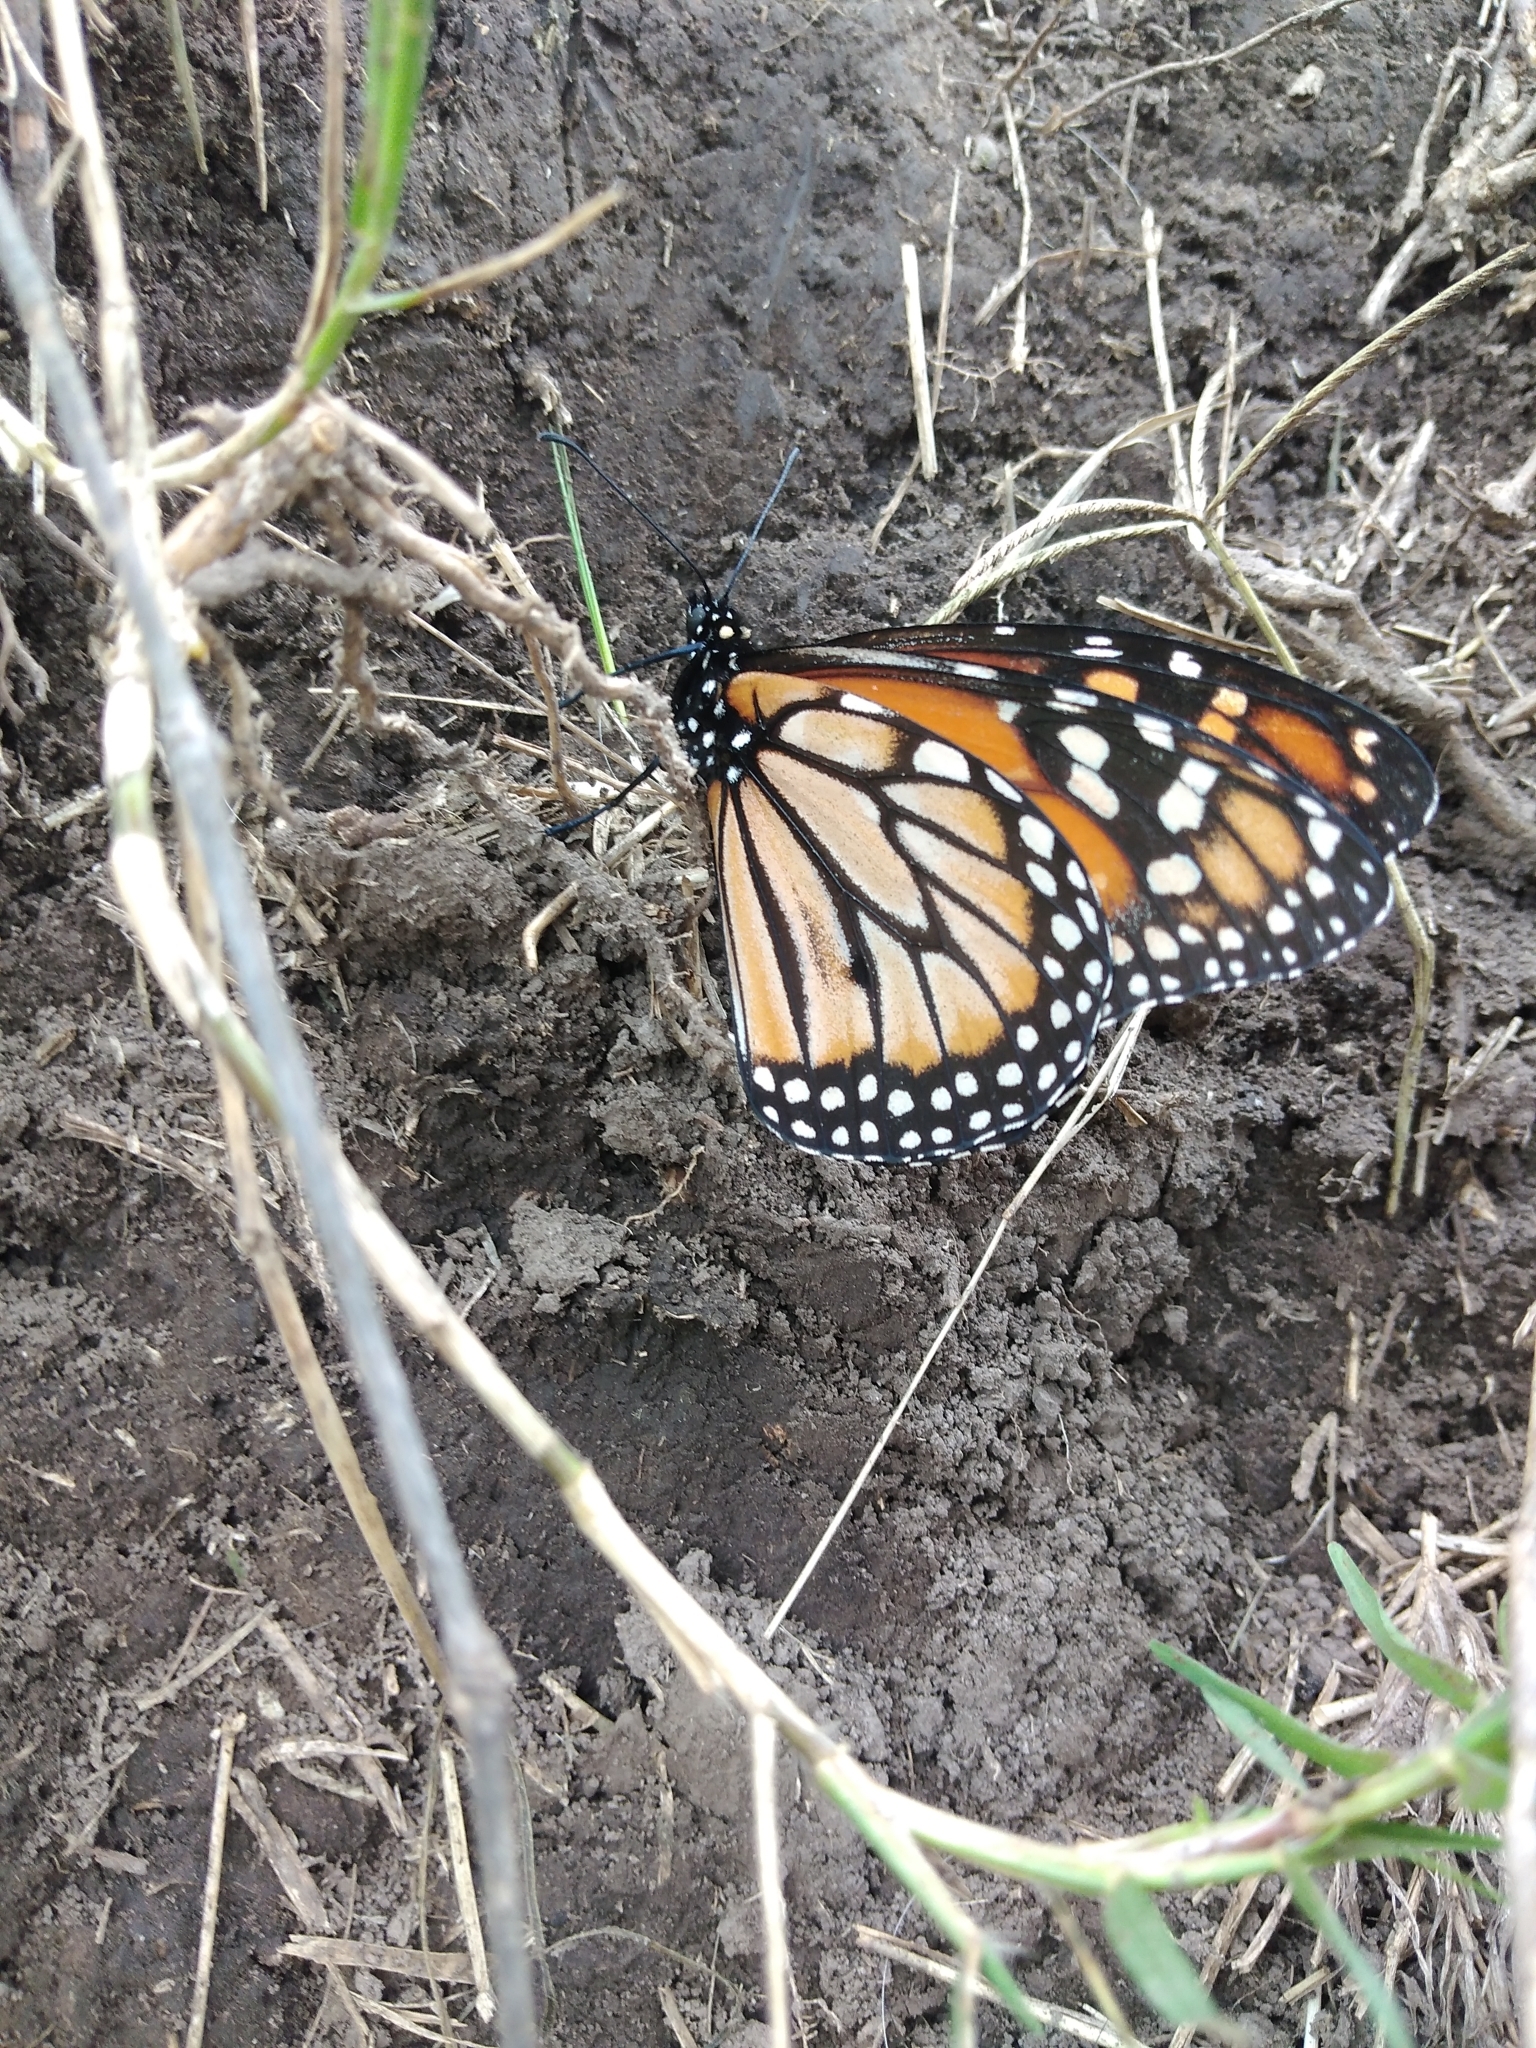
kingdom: Animalia
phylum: Arthropoda
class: Insecta
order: Lepidoptera
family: Nymphalidae
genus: Danaus
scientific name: Danaus erippus
